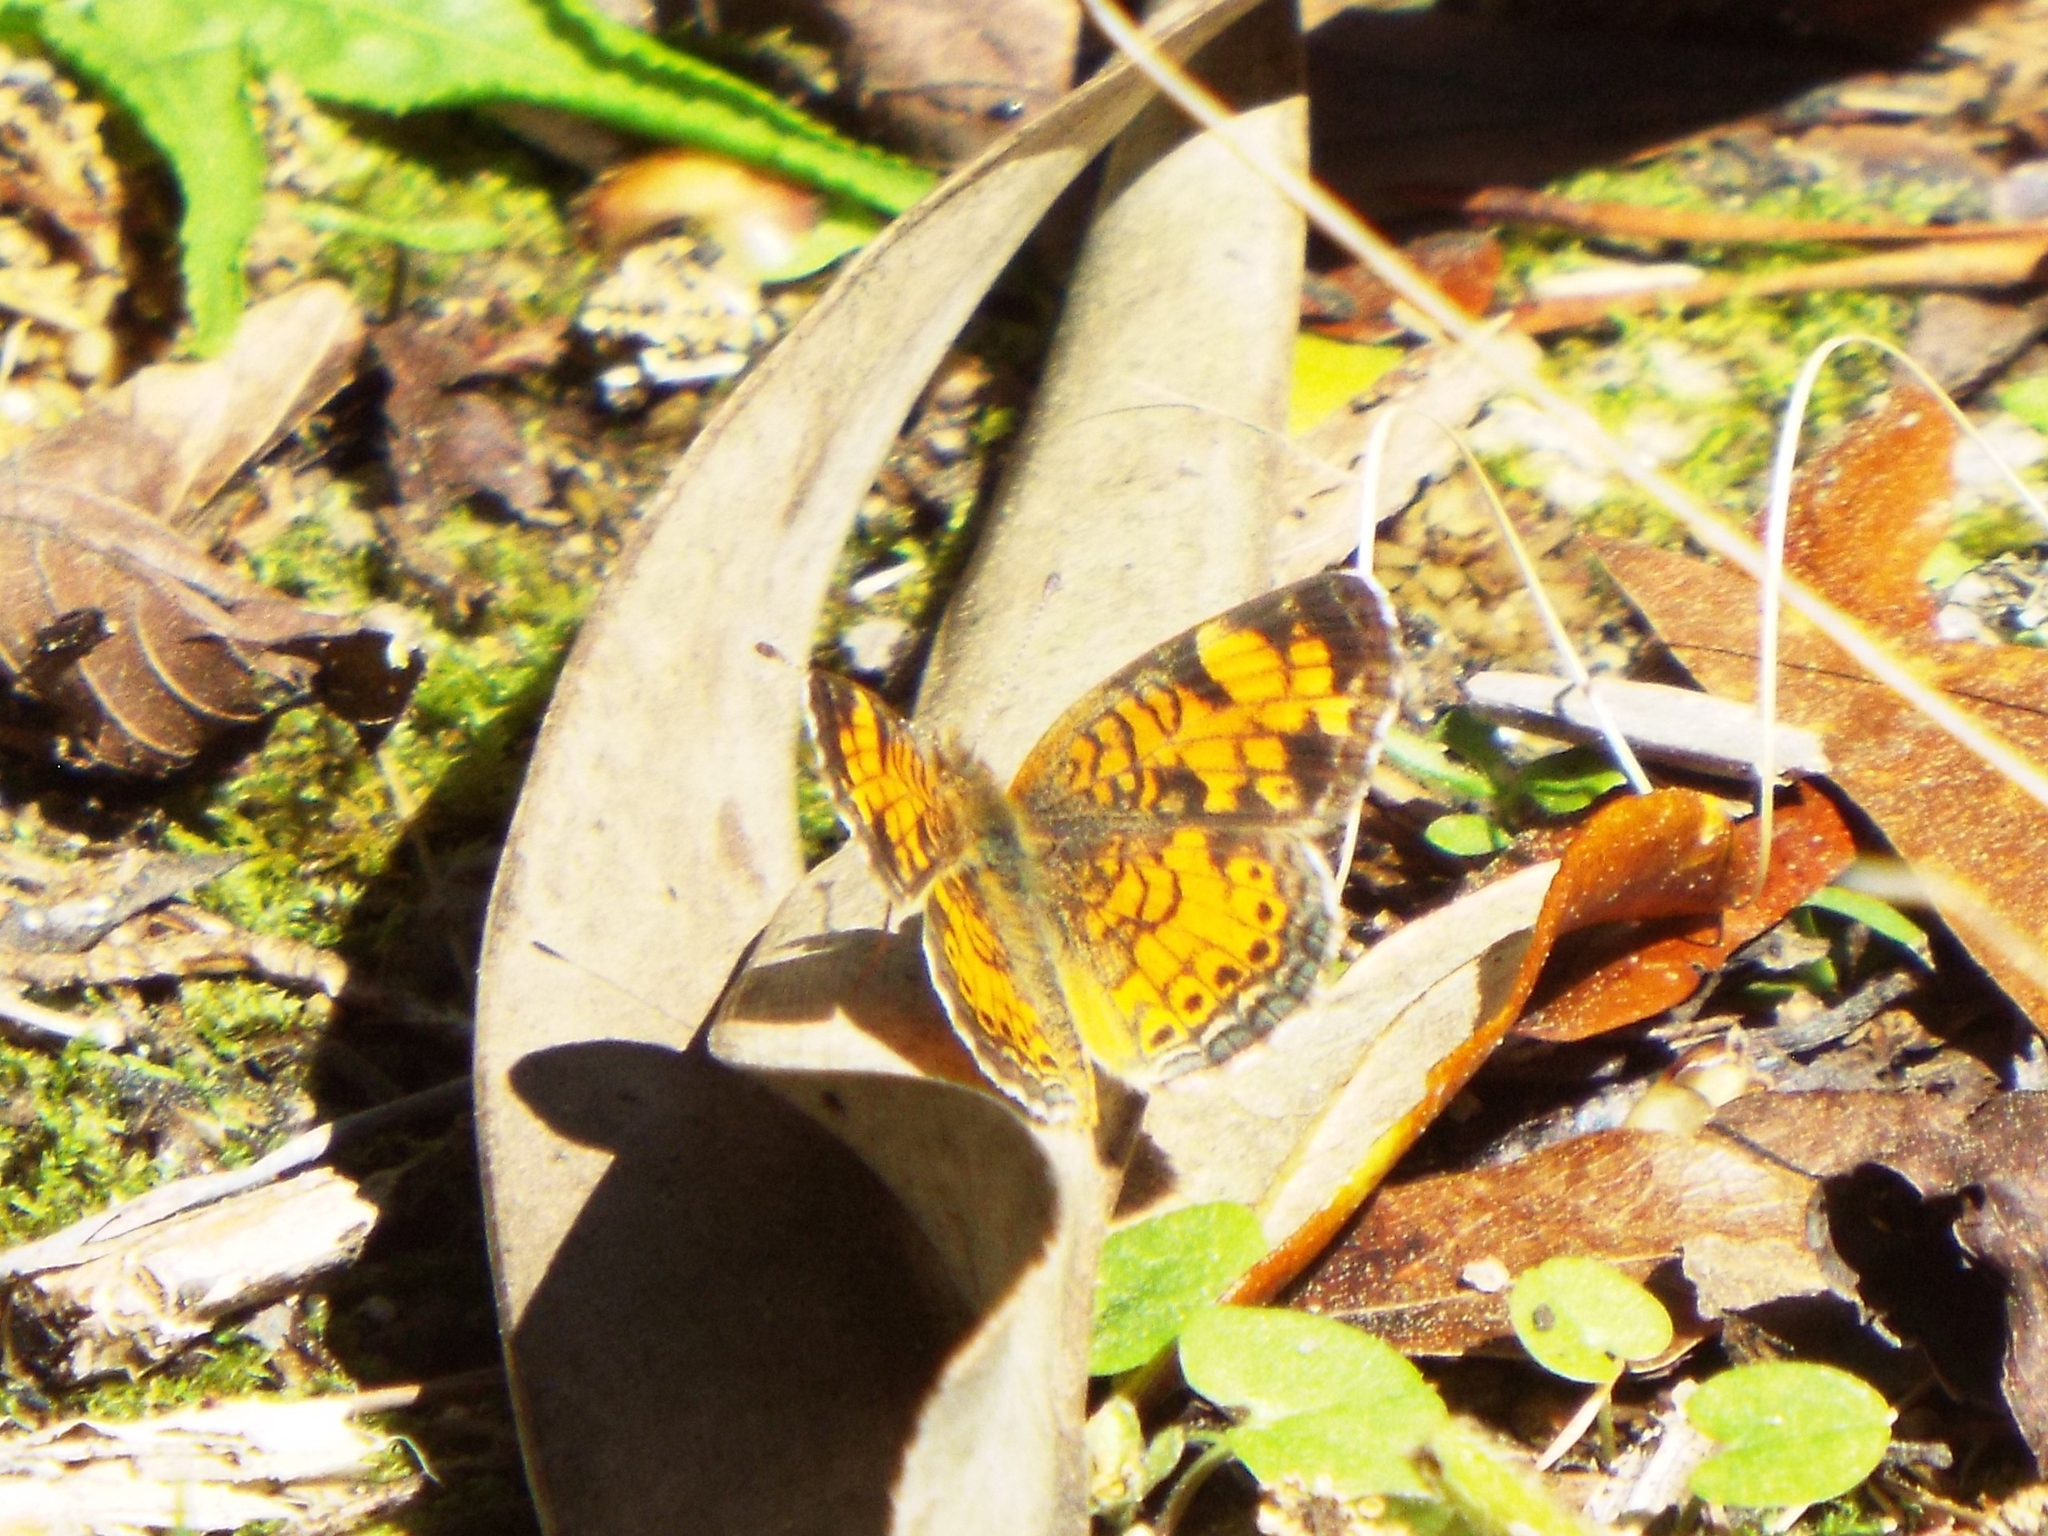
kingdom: Animalia
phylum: Arthropoda
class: Insecta
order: Lepidoptera
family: Nymphalidae
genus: Phyciodes
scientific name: Phyciodes tharos
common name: Pearl crescent
